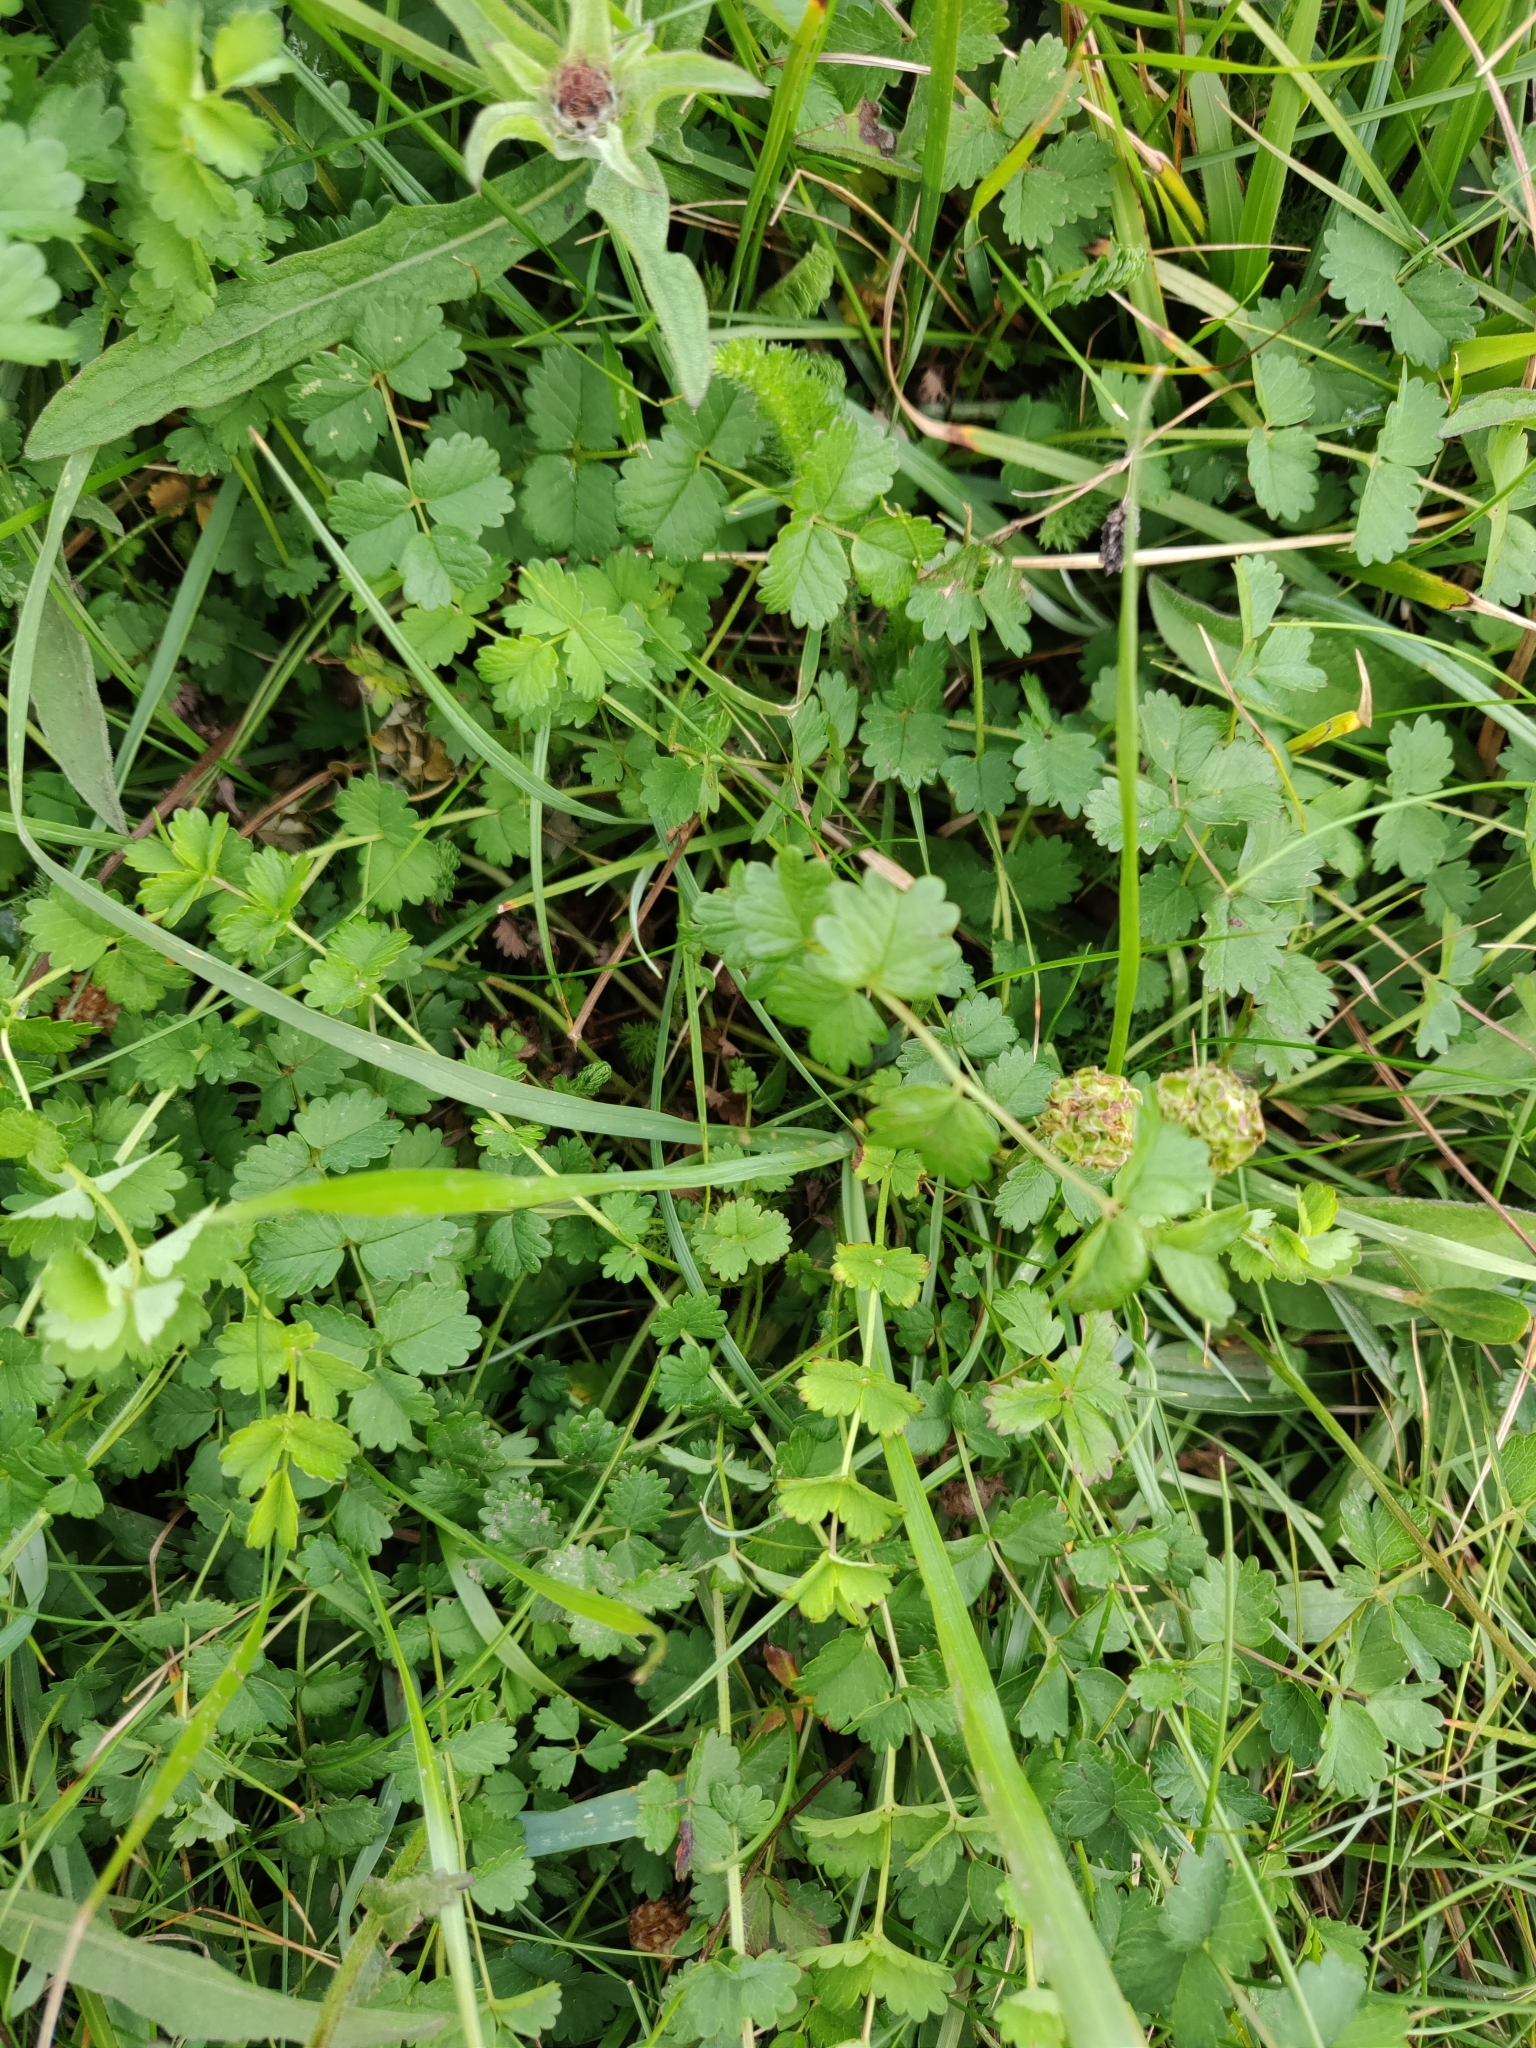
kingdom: Plantae
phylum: Tracheophyta
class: Magnoliopsida
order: Rosales
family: Rosaceae
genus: Poterium
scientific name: Poterium sanguisorba
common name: Salad burnet
